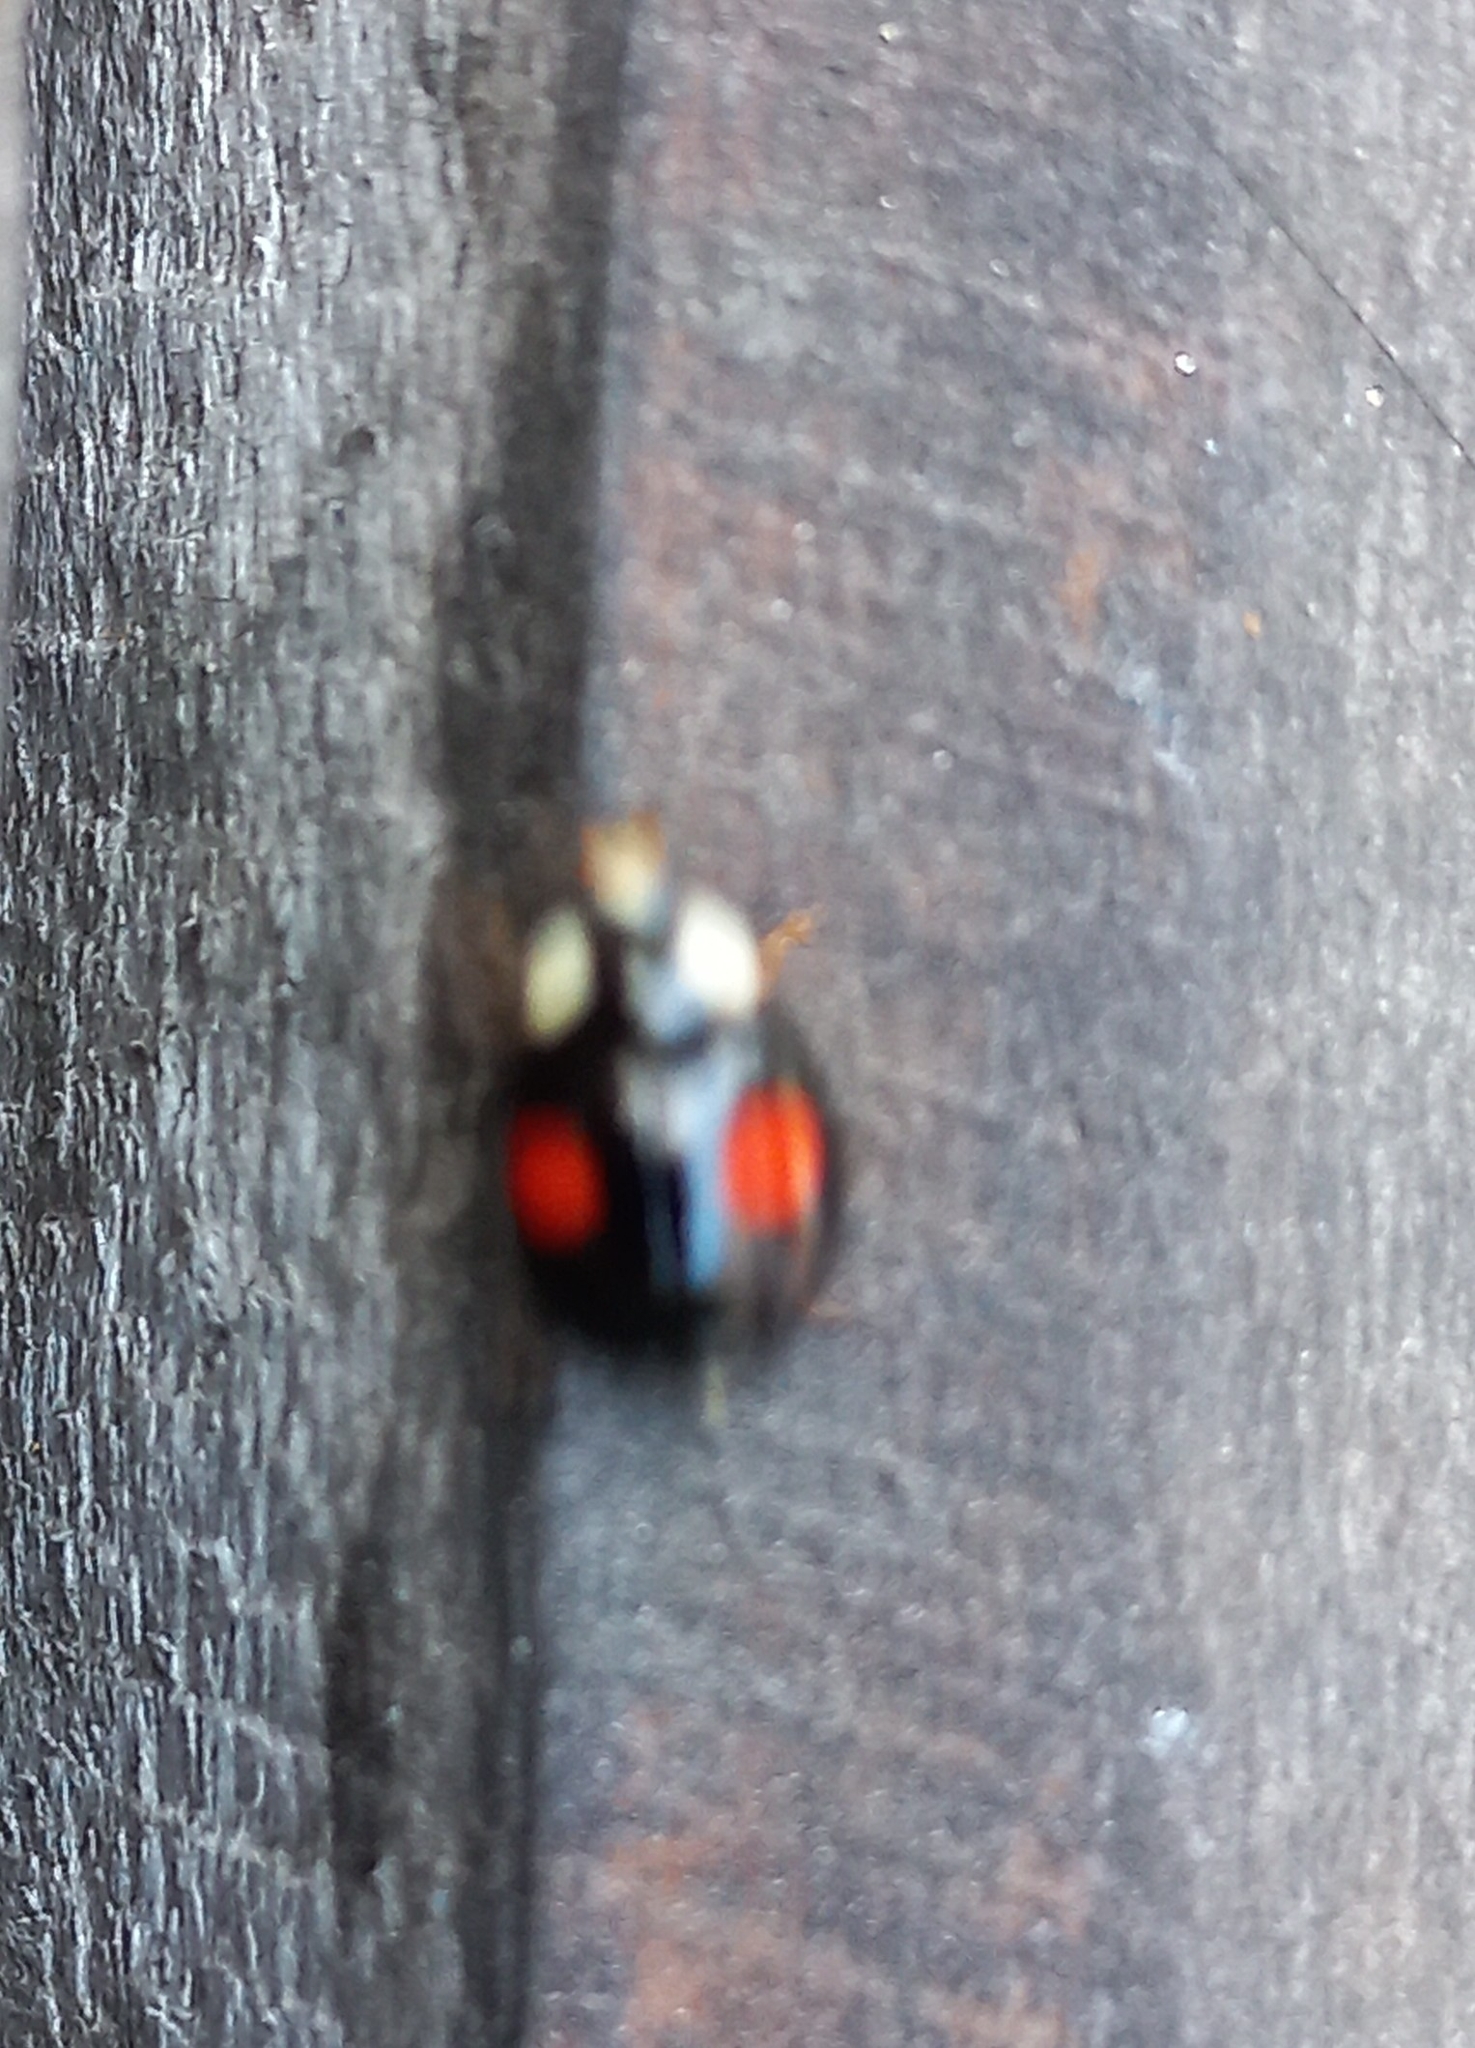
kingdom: Animalia
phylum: Arthropoda
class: Insecta
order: Coleoptera
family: Coccinellidae
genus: Harmonia
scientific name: Harmonia axyridis
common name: Harlequin ladybird
